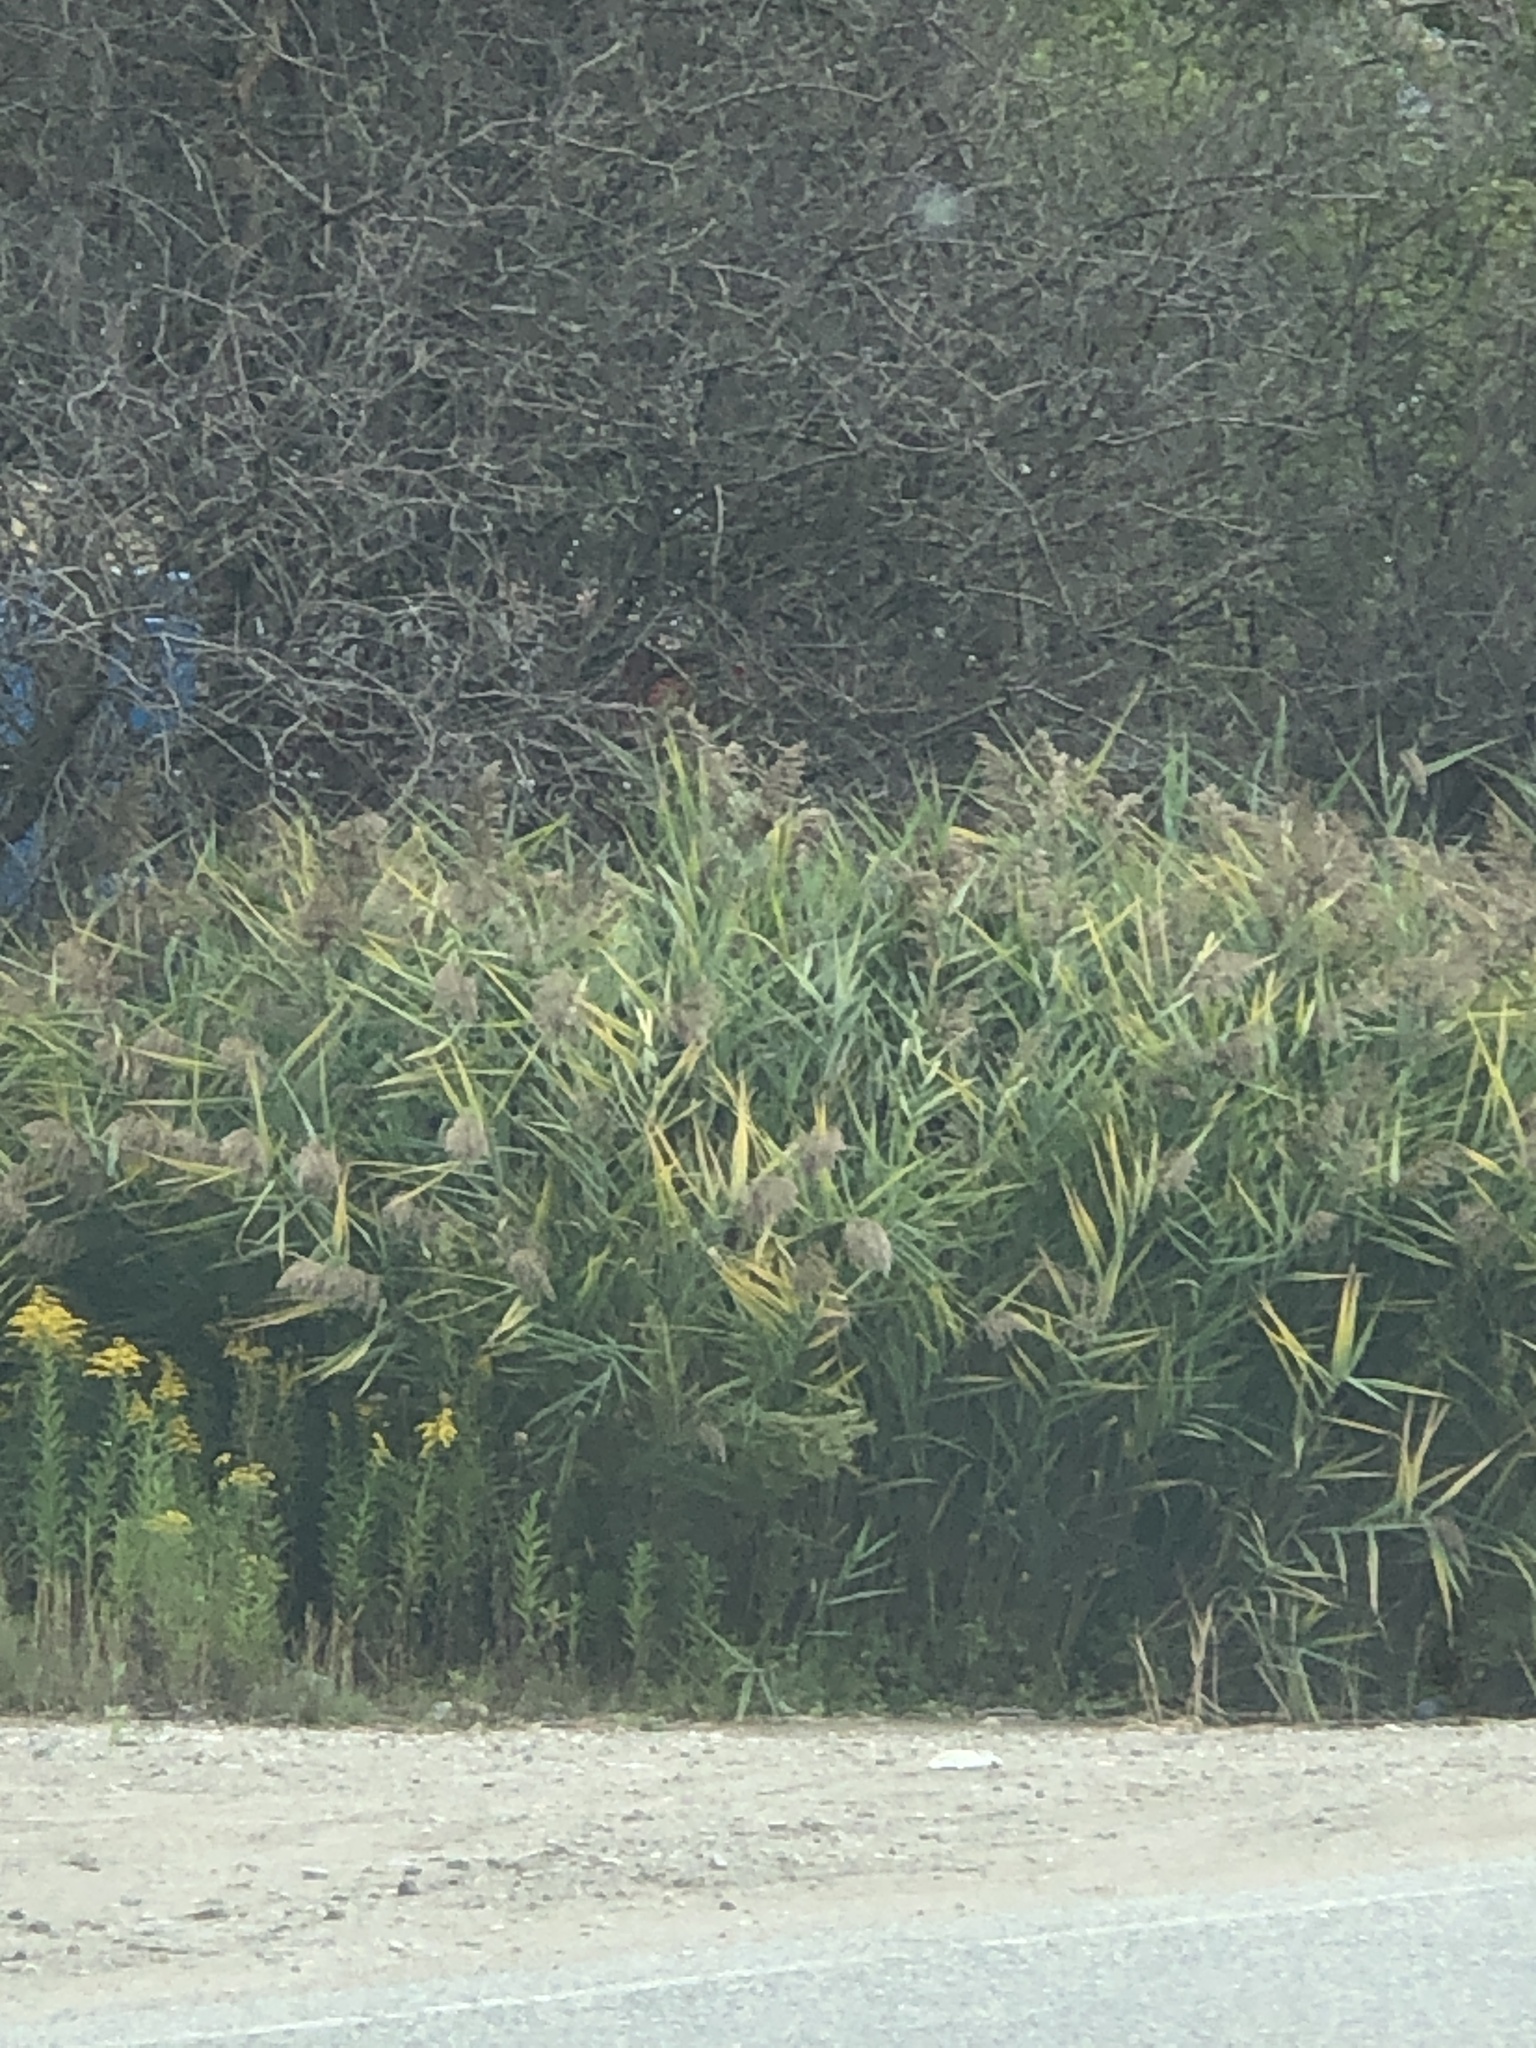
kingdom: Plantae
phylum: Tracheophyta
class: Liliopsida
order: Poales
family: Poaceae
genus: Phragmites
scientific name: Phragmites australis
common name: Common reed
